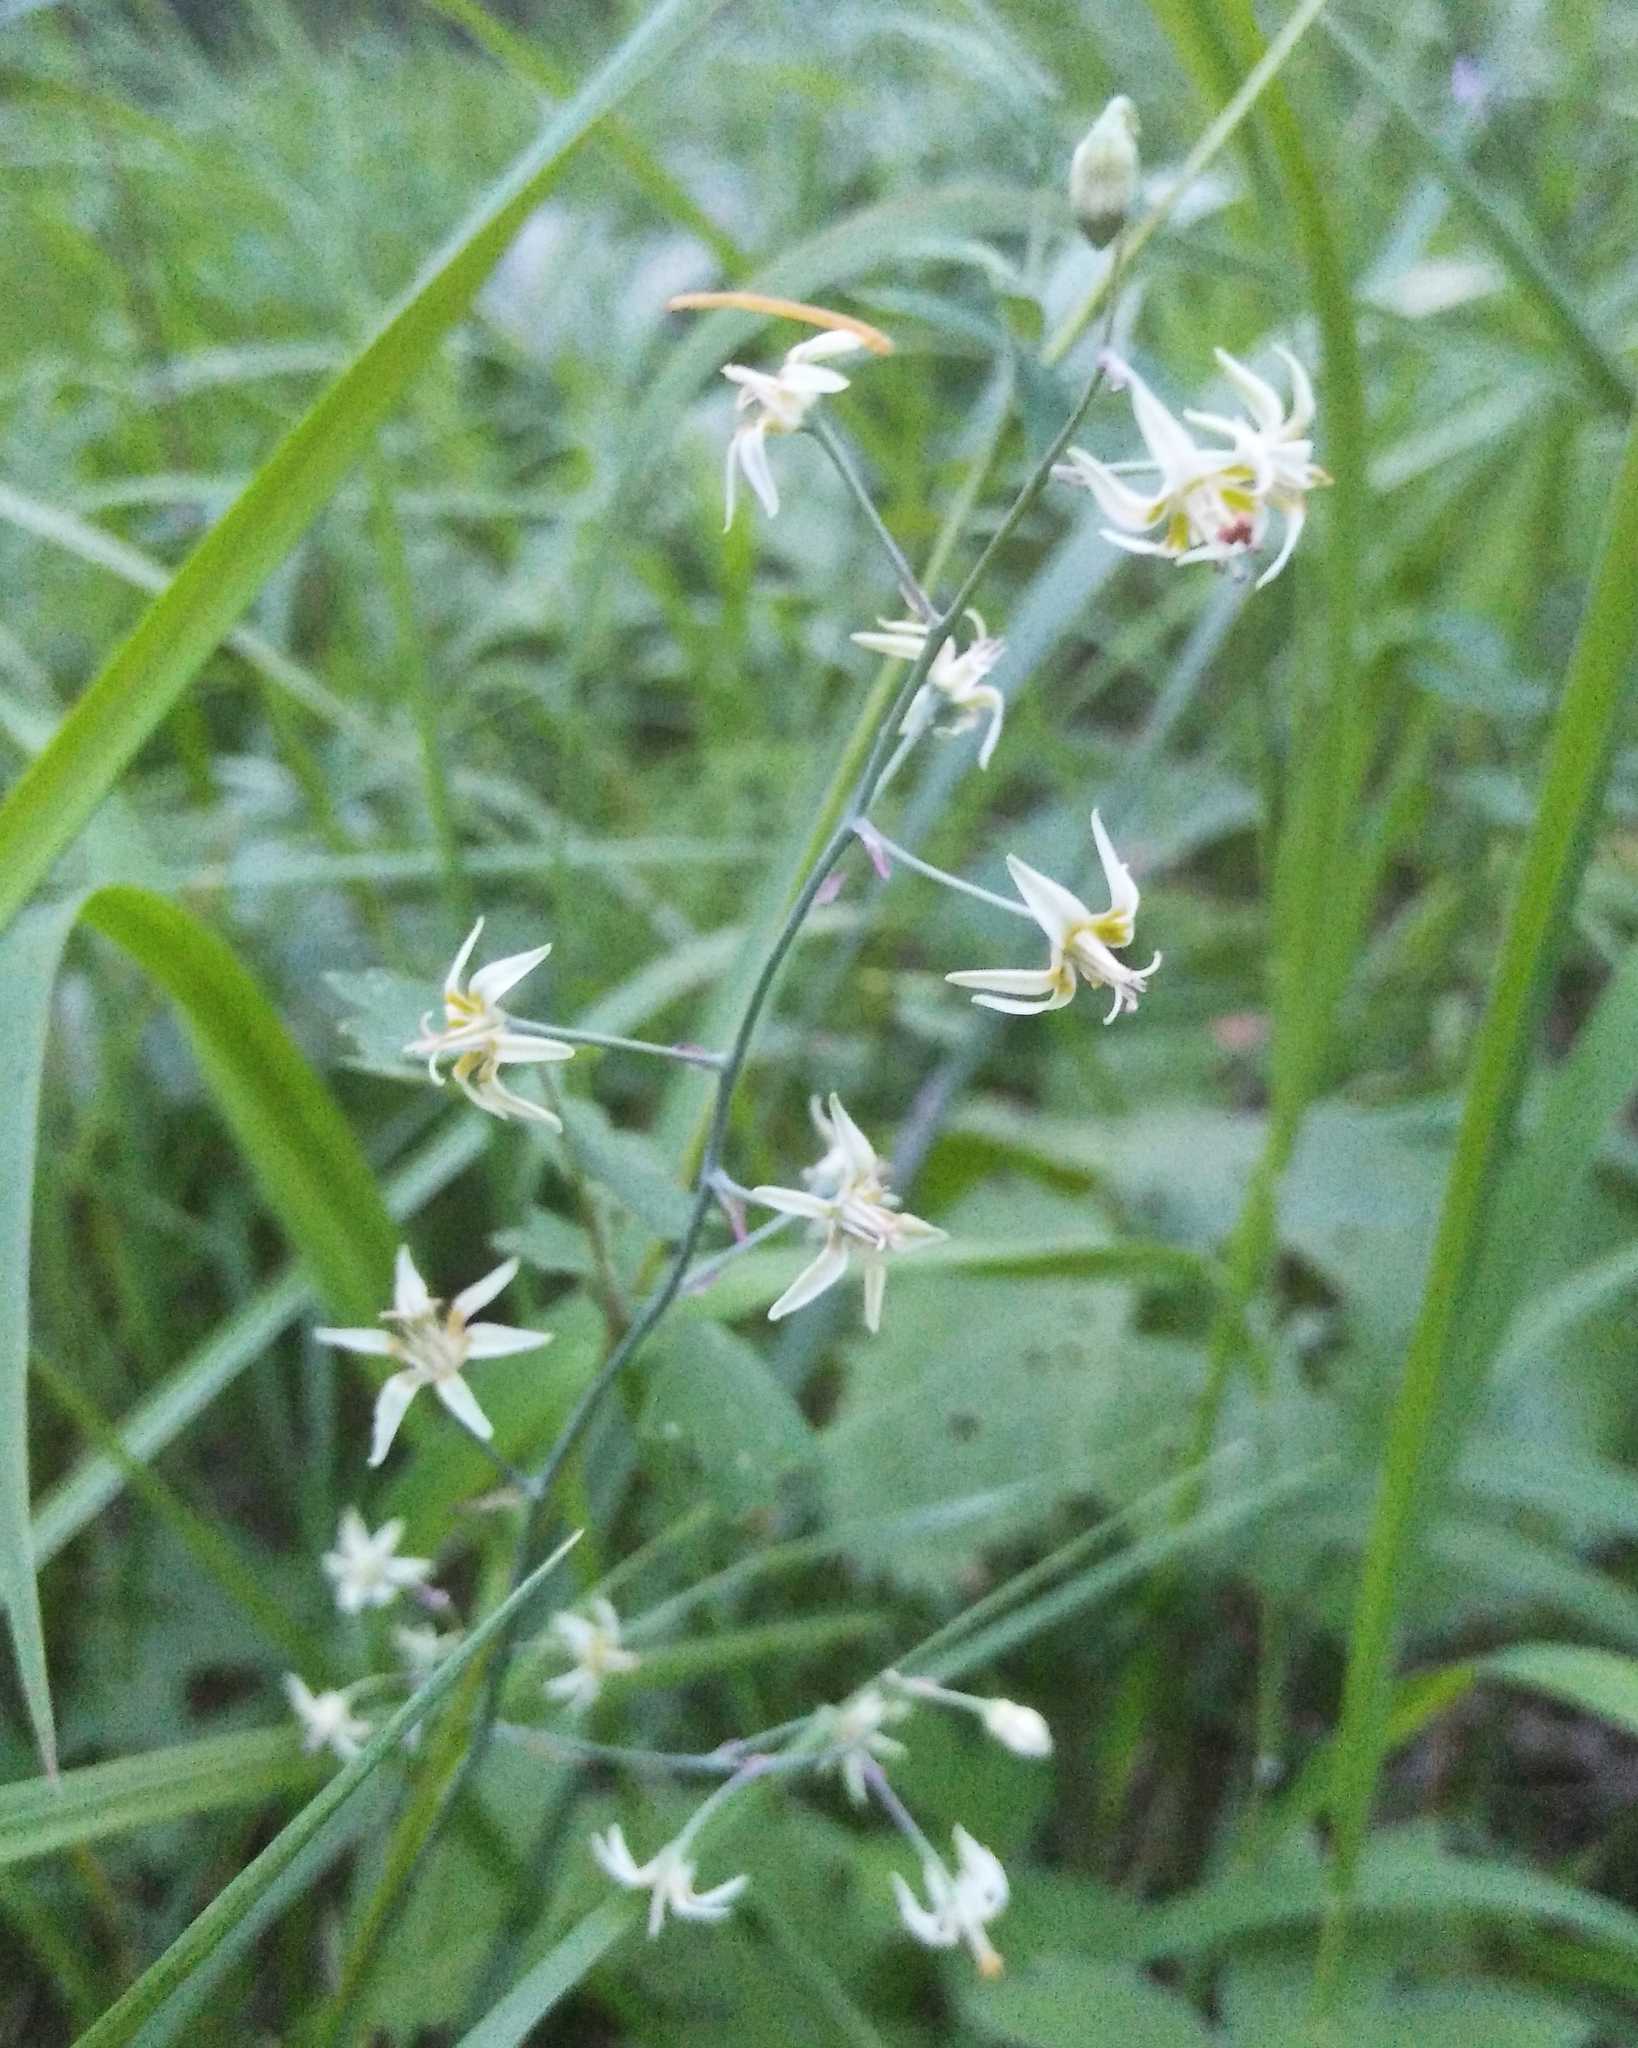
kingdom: Plantae
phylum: Tracheophyta
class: Liliopsida
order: Liliales
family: Melanthiaceae
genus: Anticlea
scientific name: Anticlea sibirica
